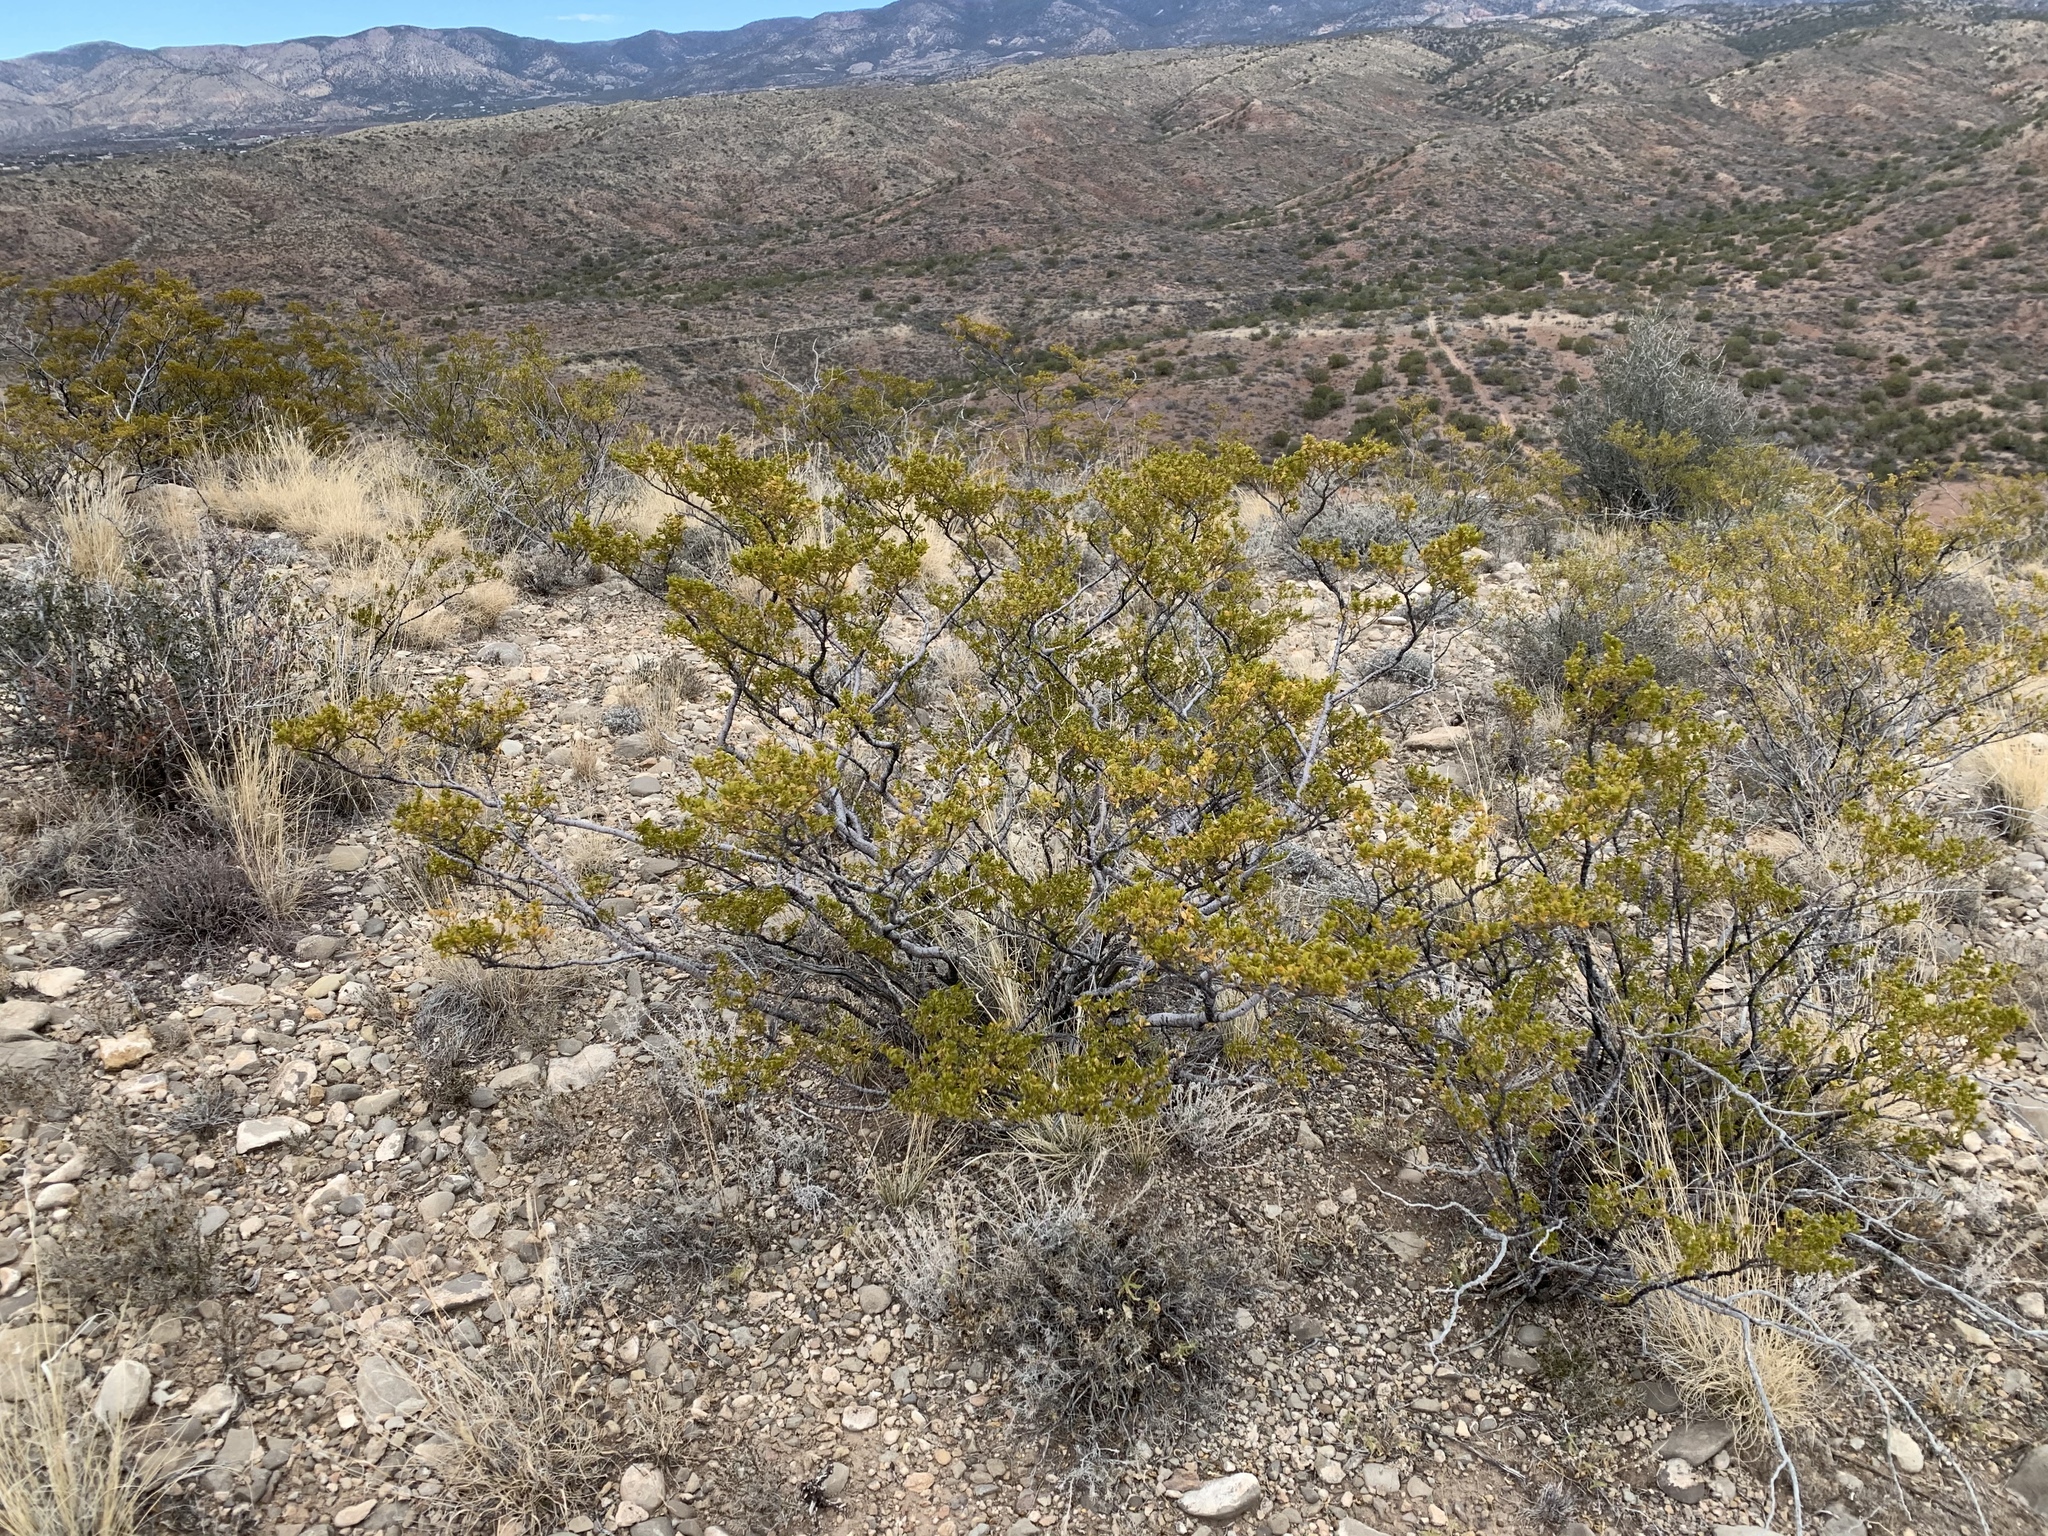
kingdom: Plantae
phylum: Tracheophyta
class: Magnoliopsida
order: Zygophyllales
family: Zygophyllaceae
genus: Larrea
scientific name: Larrea tridentata
